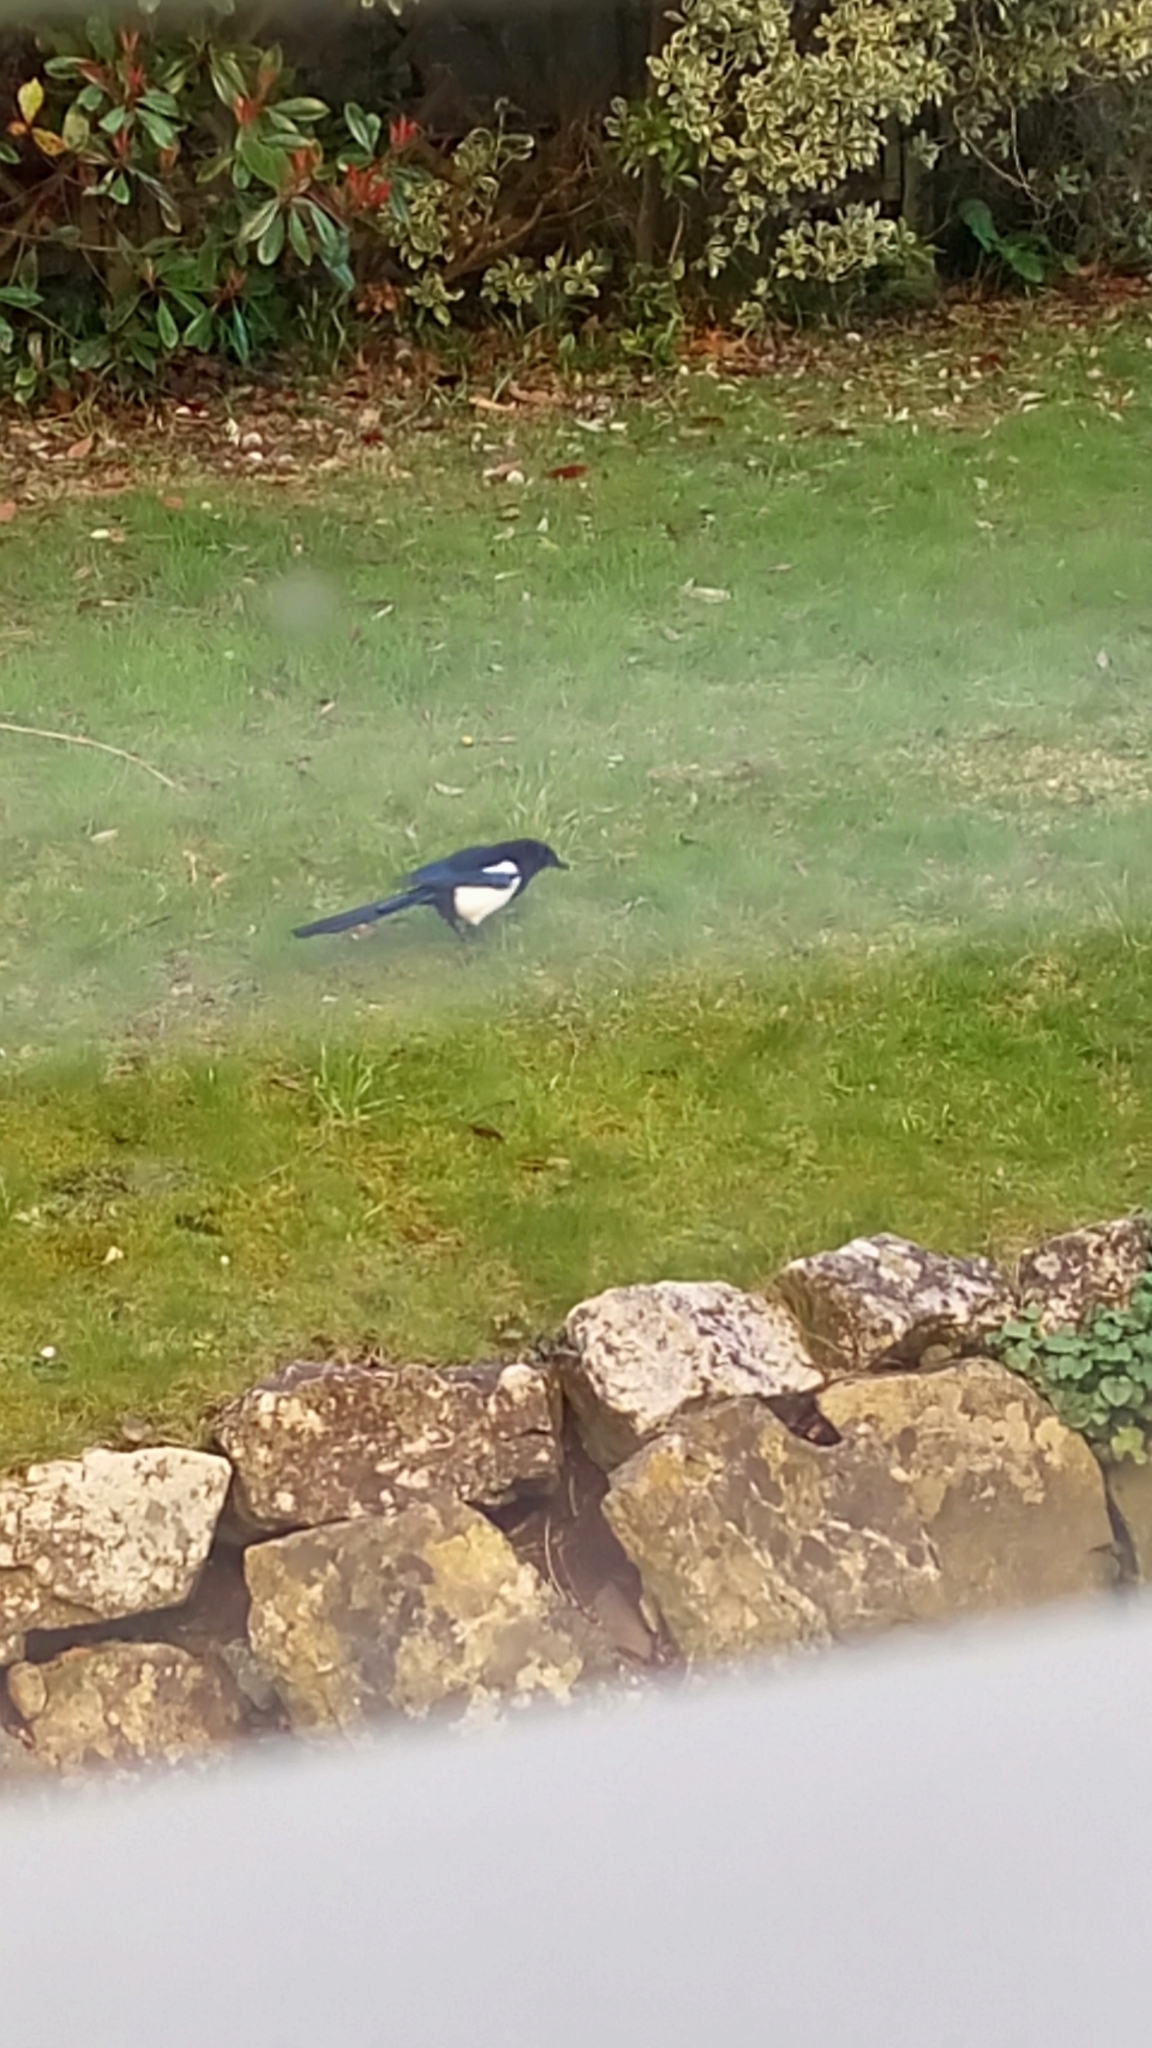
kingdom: Animalia
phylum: Chordata
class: Aves
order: Passeriformes
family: Corvidae
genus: Pica
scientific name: Pica pica
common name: Eurasian magpie
